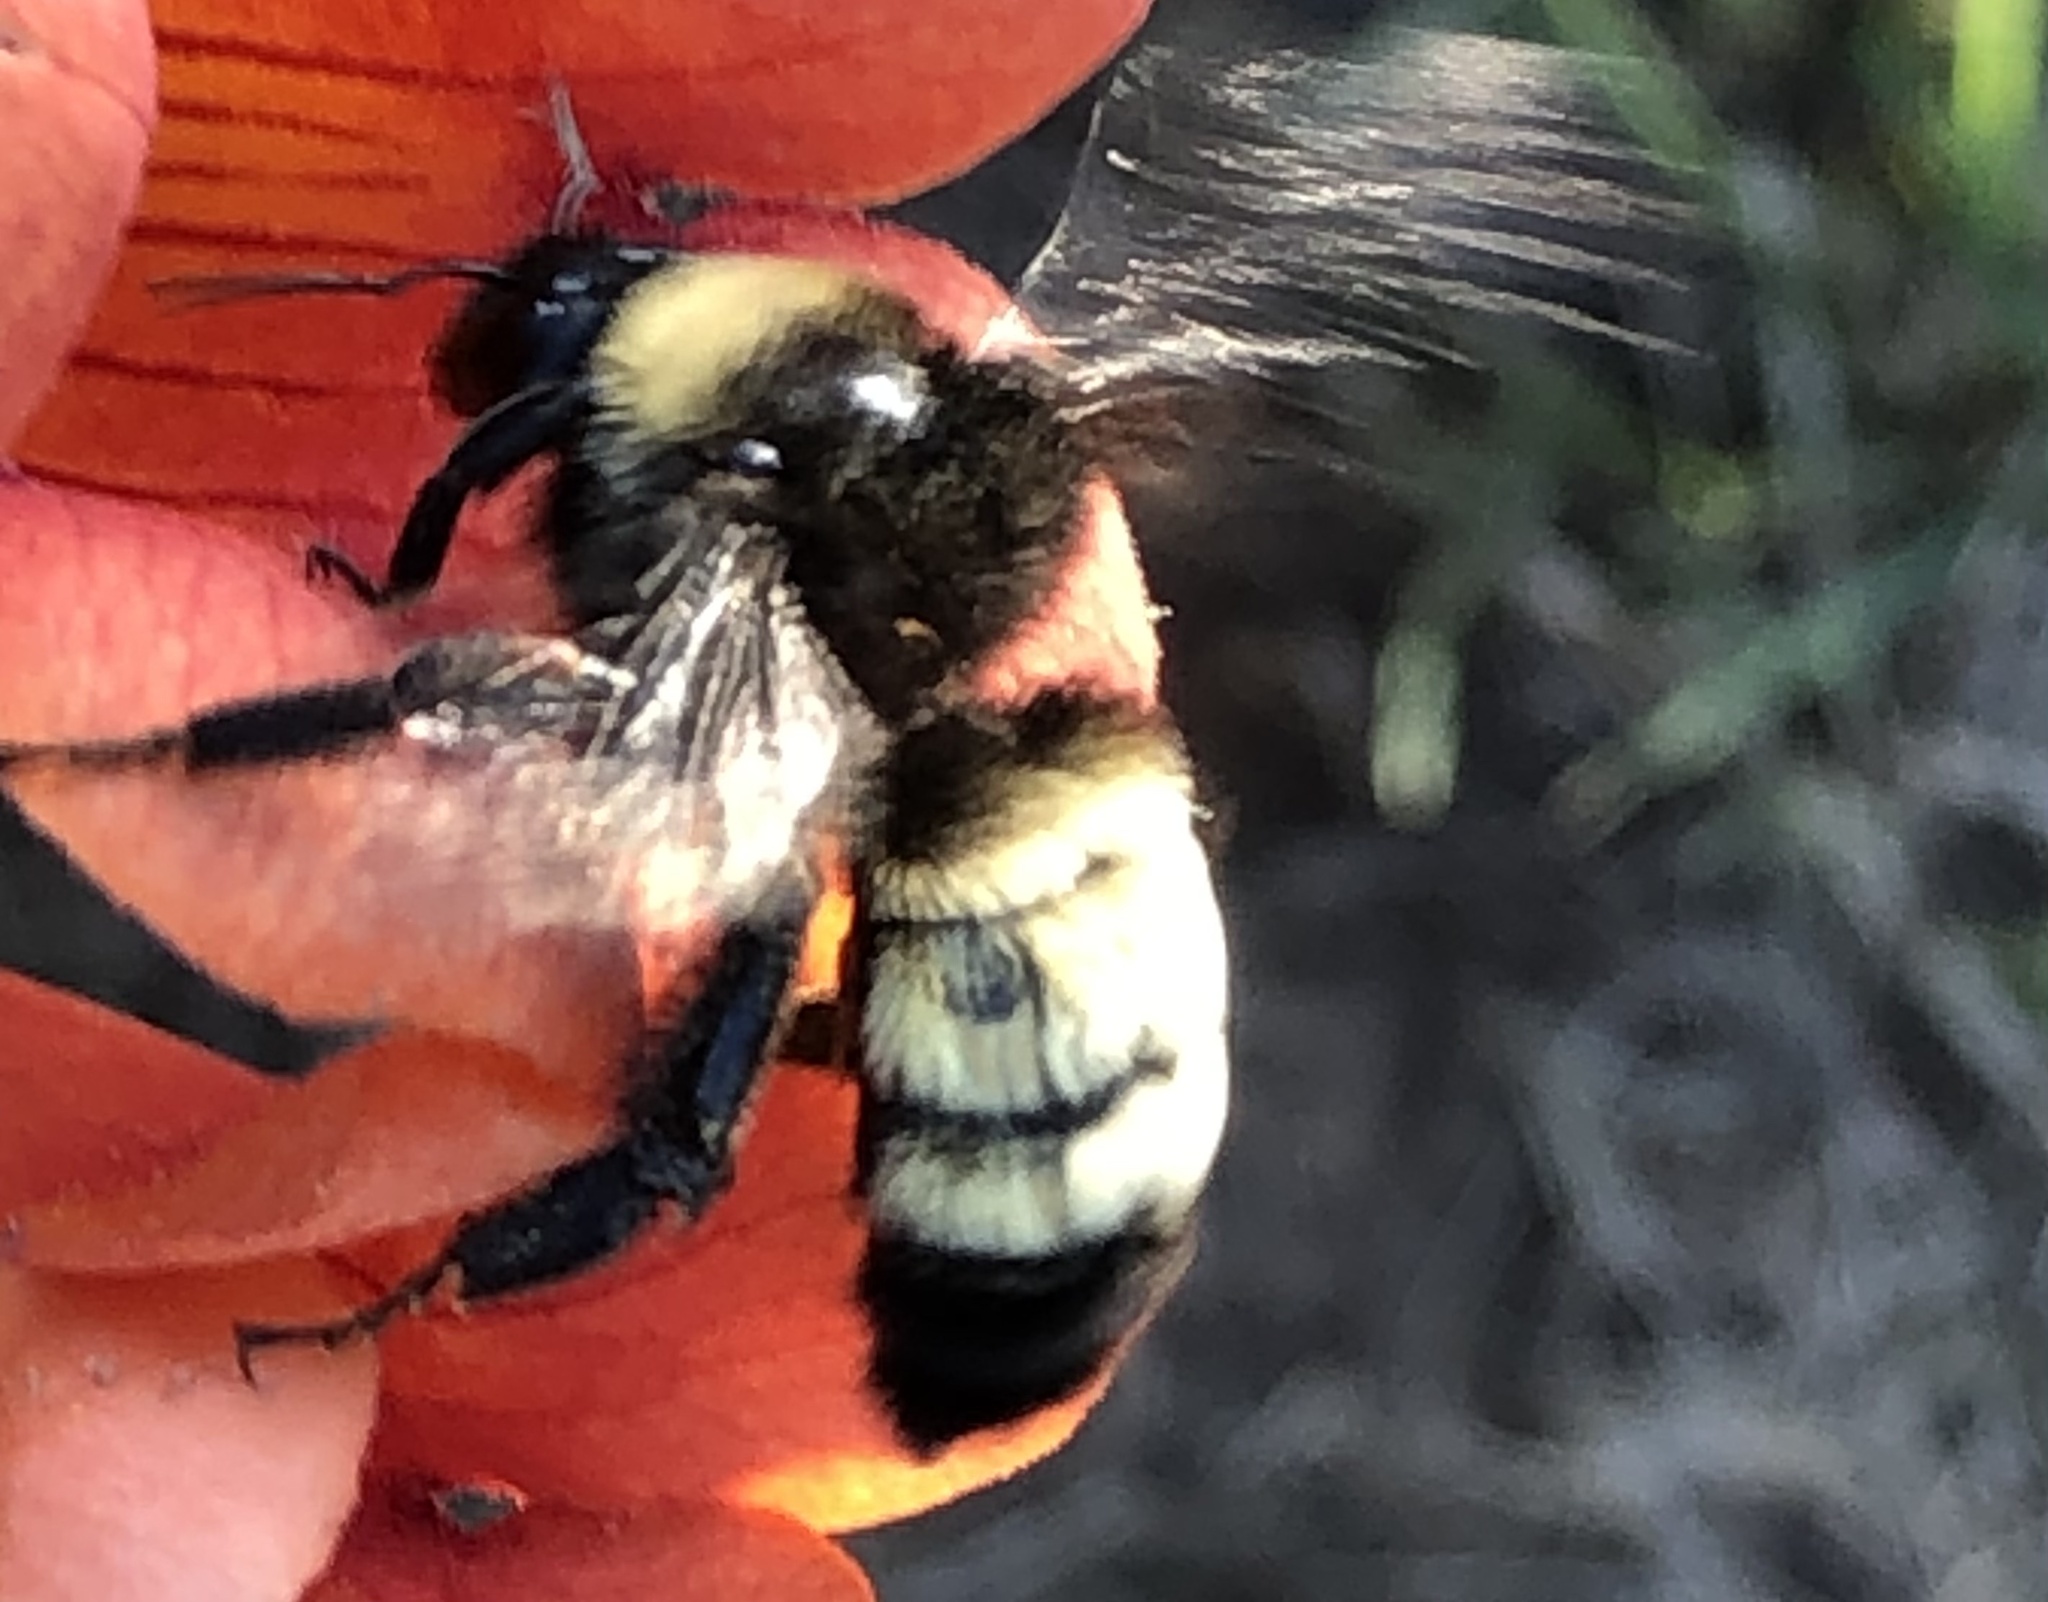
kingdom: Animalia
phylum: Arthropoda
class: Insecta
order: Hymenoptera
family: Apidae
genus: Bombus
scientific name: Bombus pensylvanicus
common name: Bumble bee
